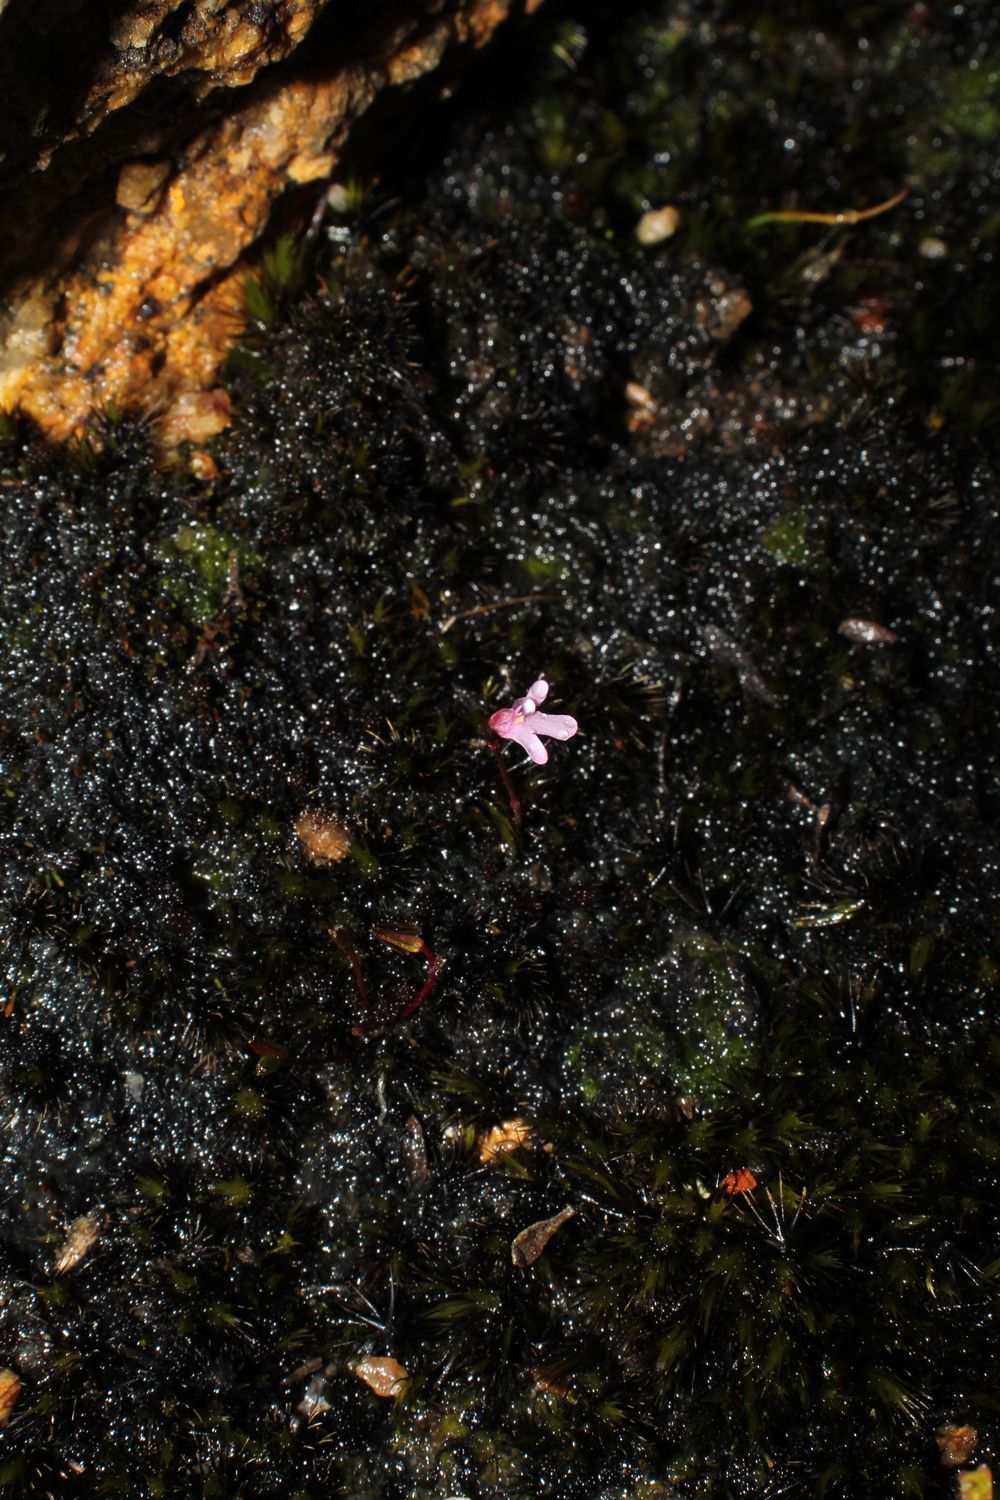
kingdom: Plantae
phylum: Tracheophyta
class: Magnoliopsida
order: Lamiales
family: Lentibulariaceae
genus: Utricularia
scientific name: Utricularia tenella
